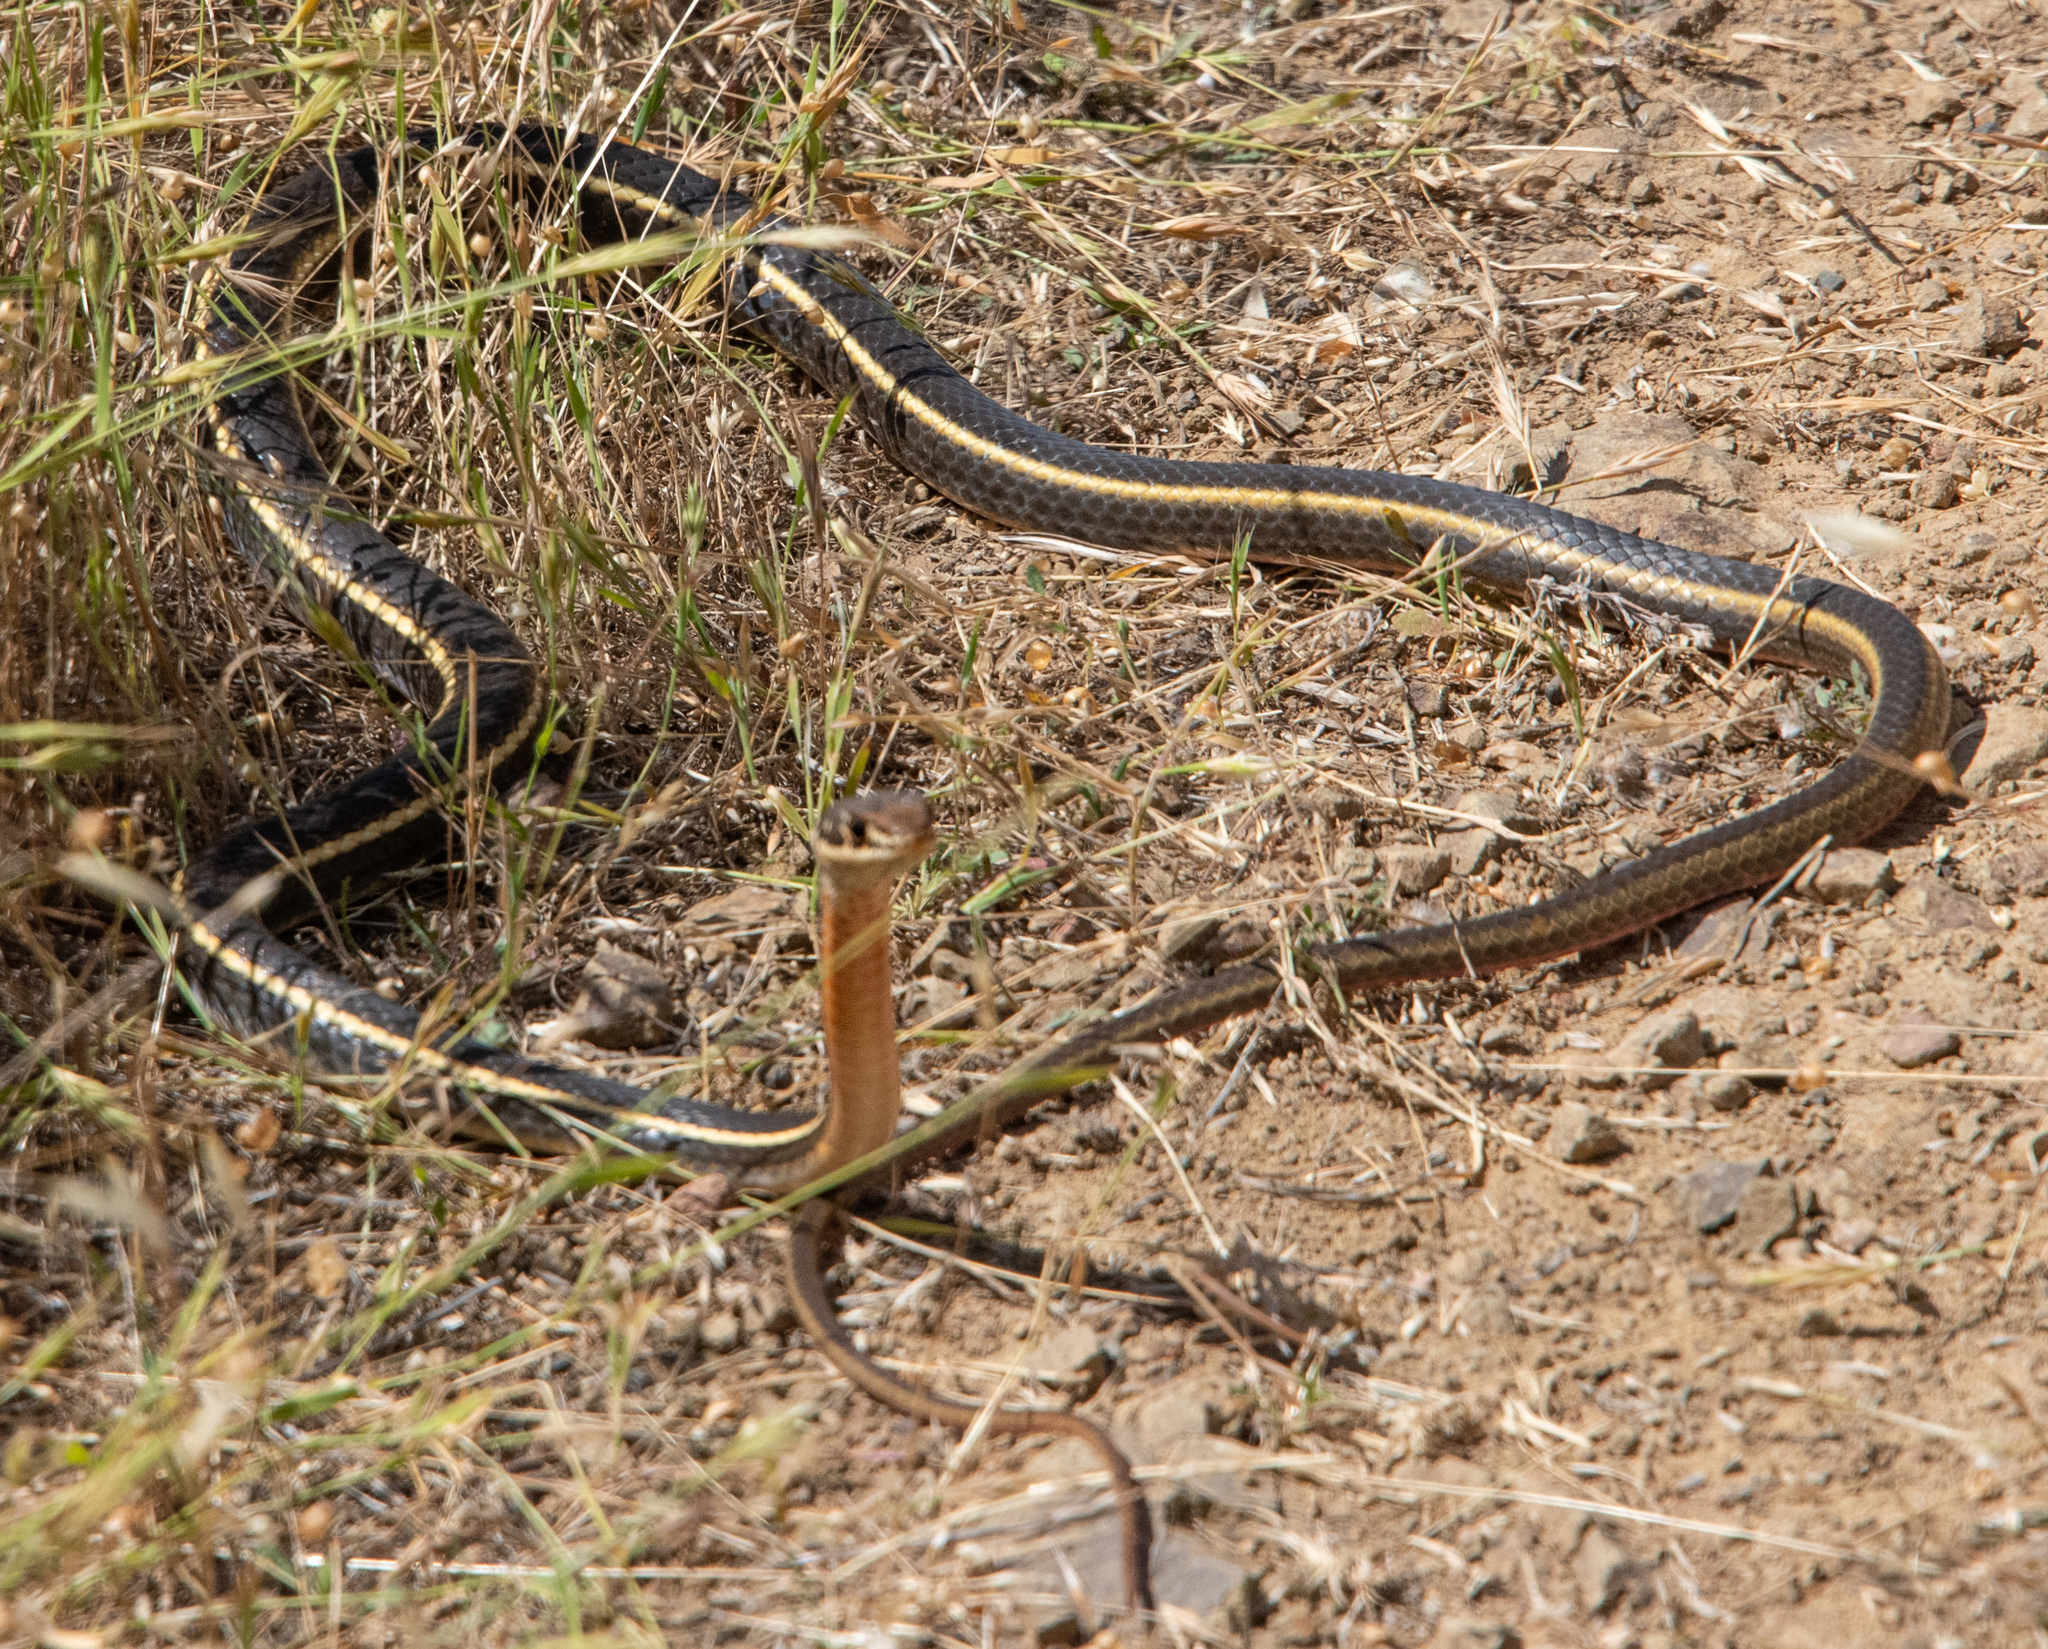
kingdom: Animalia
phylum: Chordata
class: Squamata
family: Colubridae
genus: Masticophis
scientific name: Masticophis lateralis
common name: Striped racer
